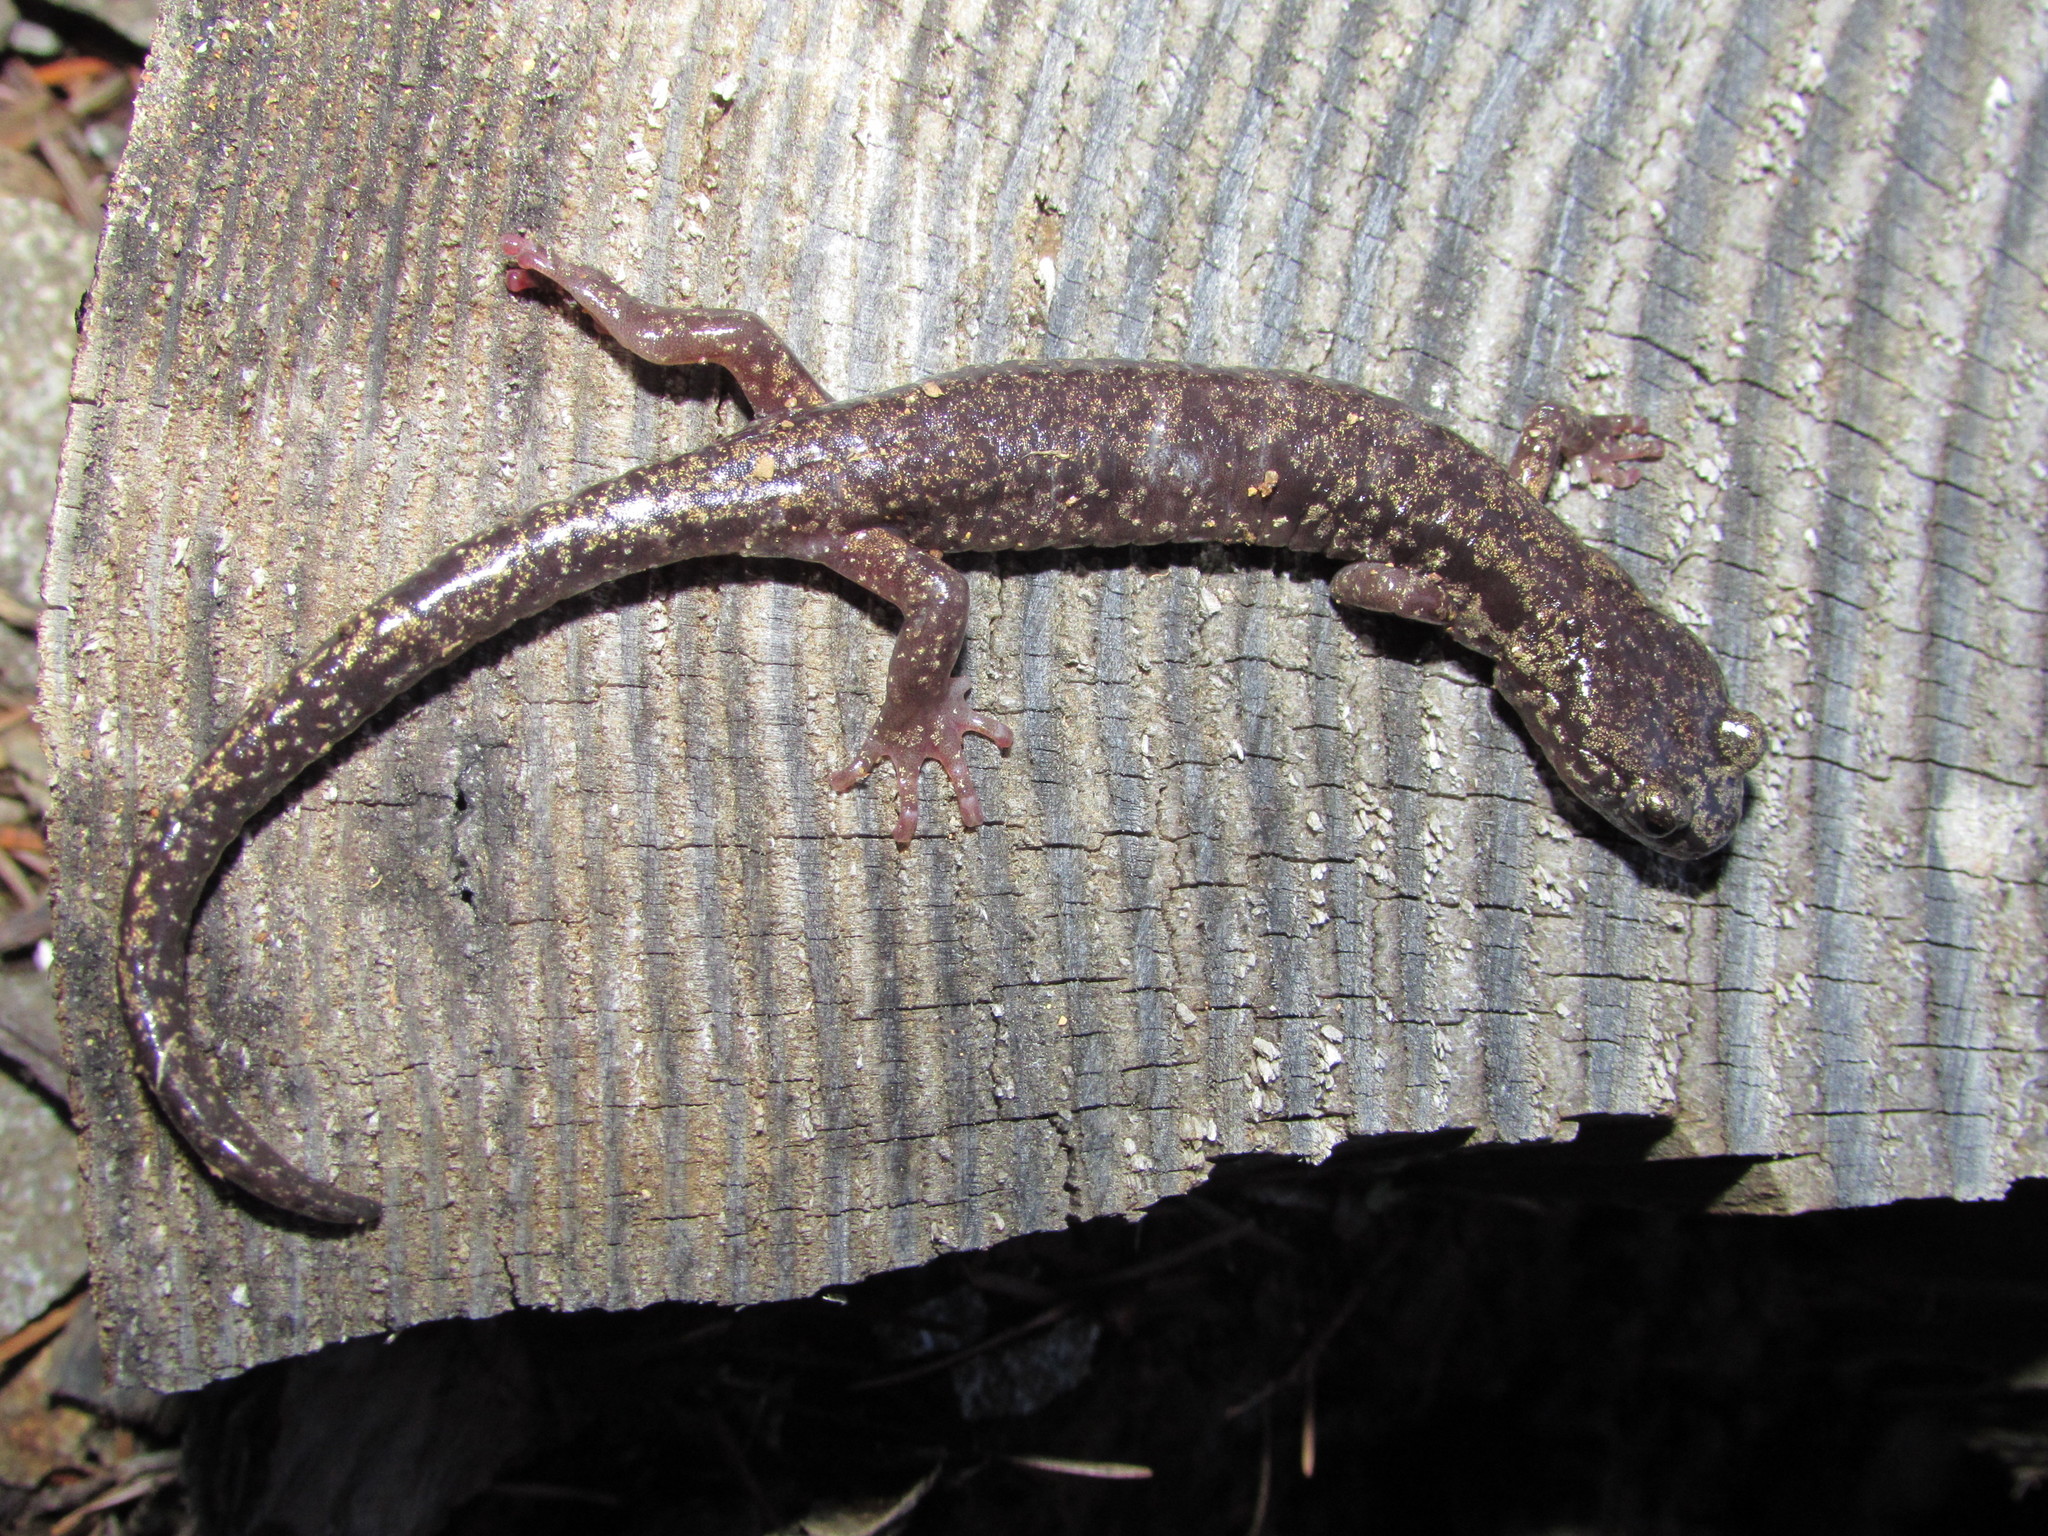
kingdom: Animalia
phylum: Chordata
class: Amphibia
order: Caudata
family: Plethodontidae
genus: Aneides
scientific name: Aneides ferreus
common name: Clouded salamander
